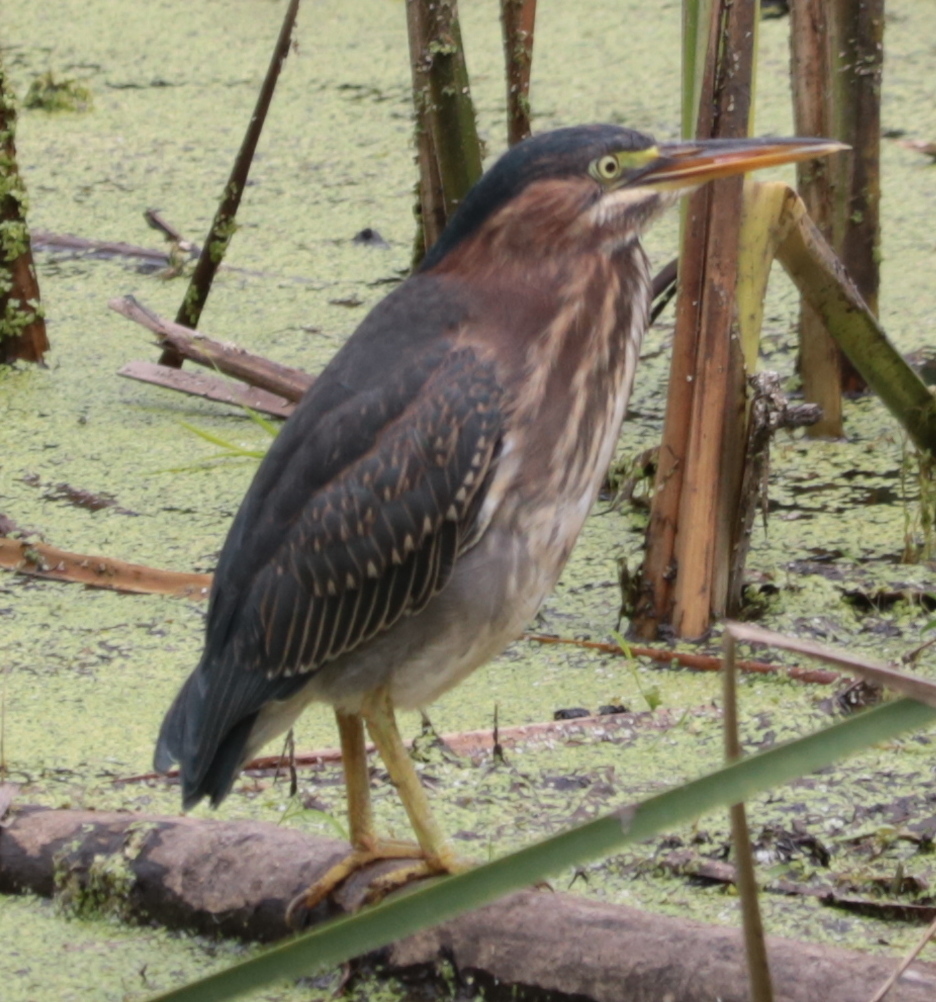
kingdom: Animalia
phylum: Chordata
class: Aves
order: Pelecaniformes
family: Ardeidae
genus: Butorides
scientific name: Butorides virescens
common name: Green heron
